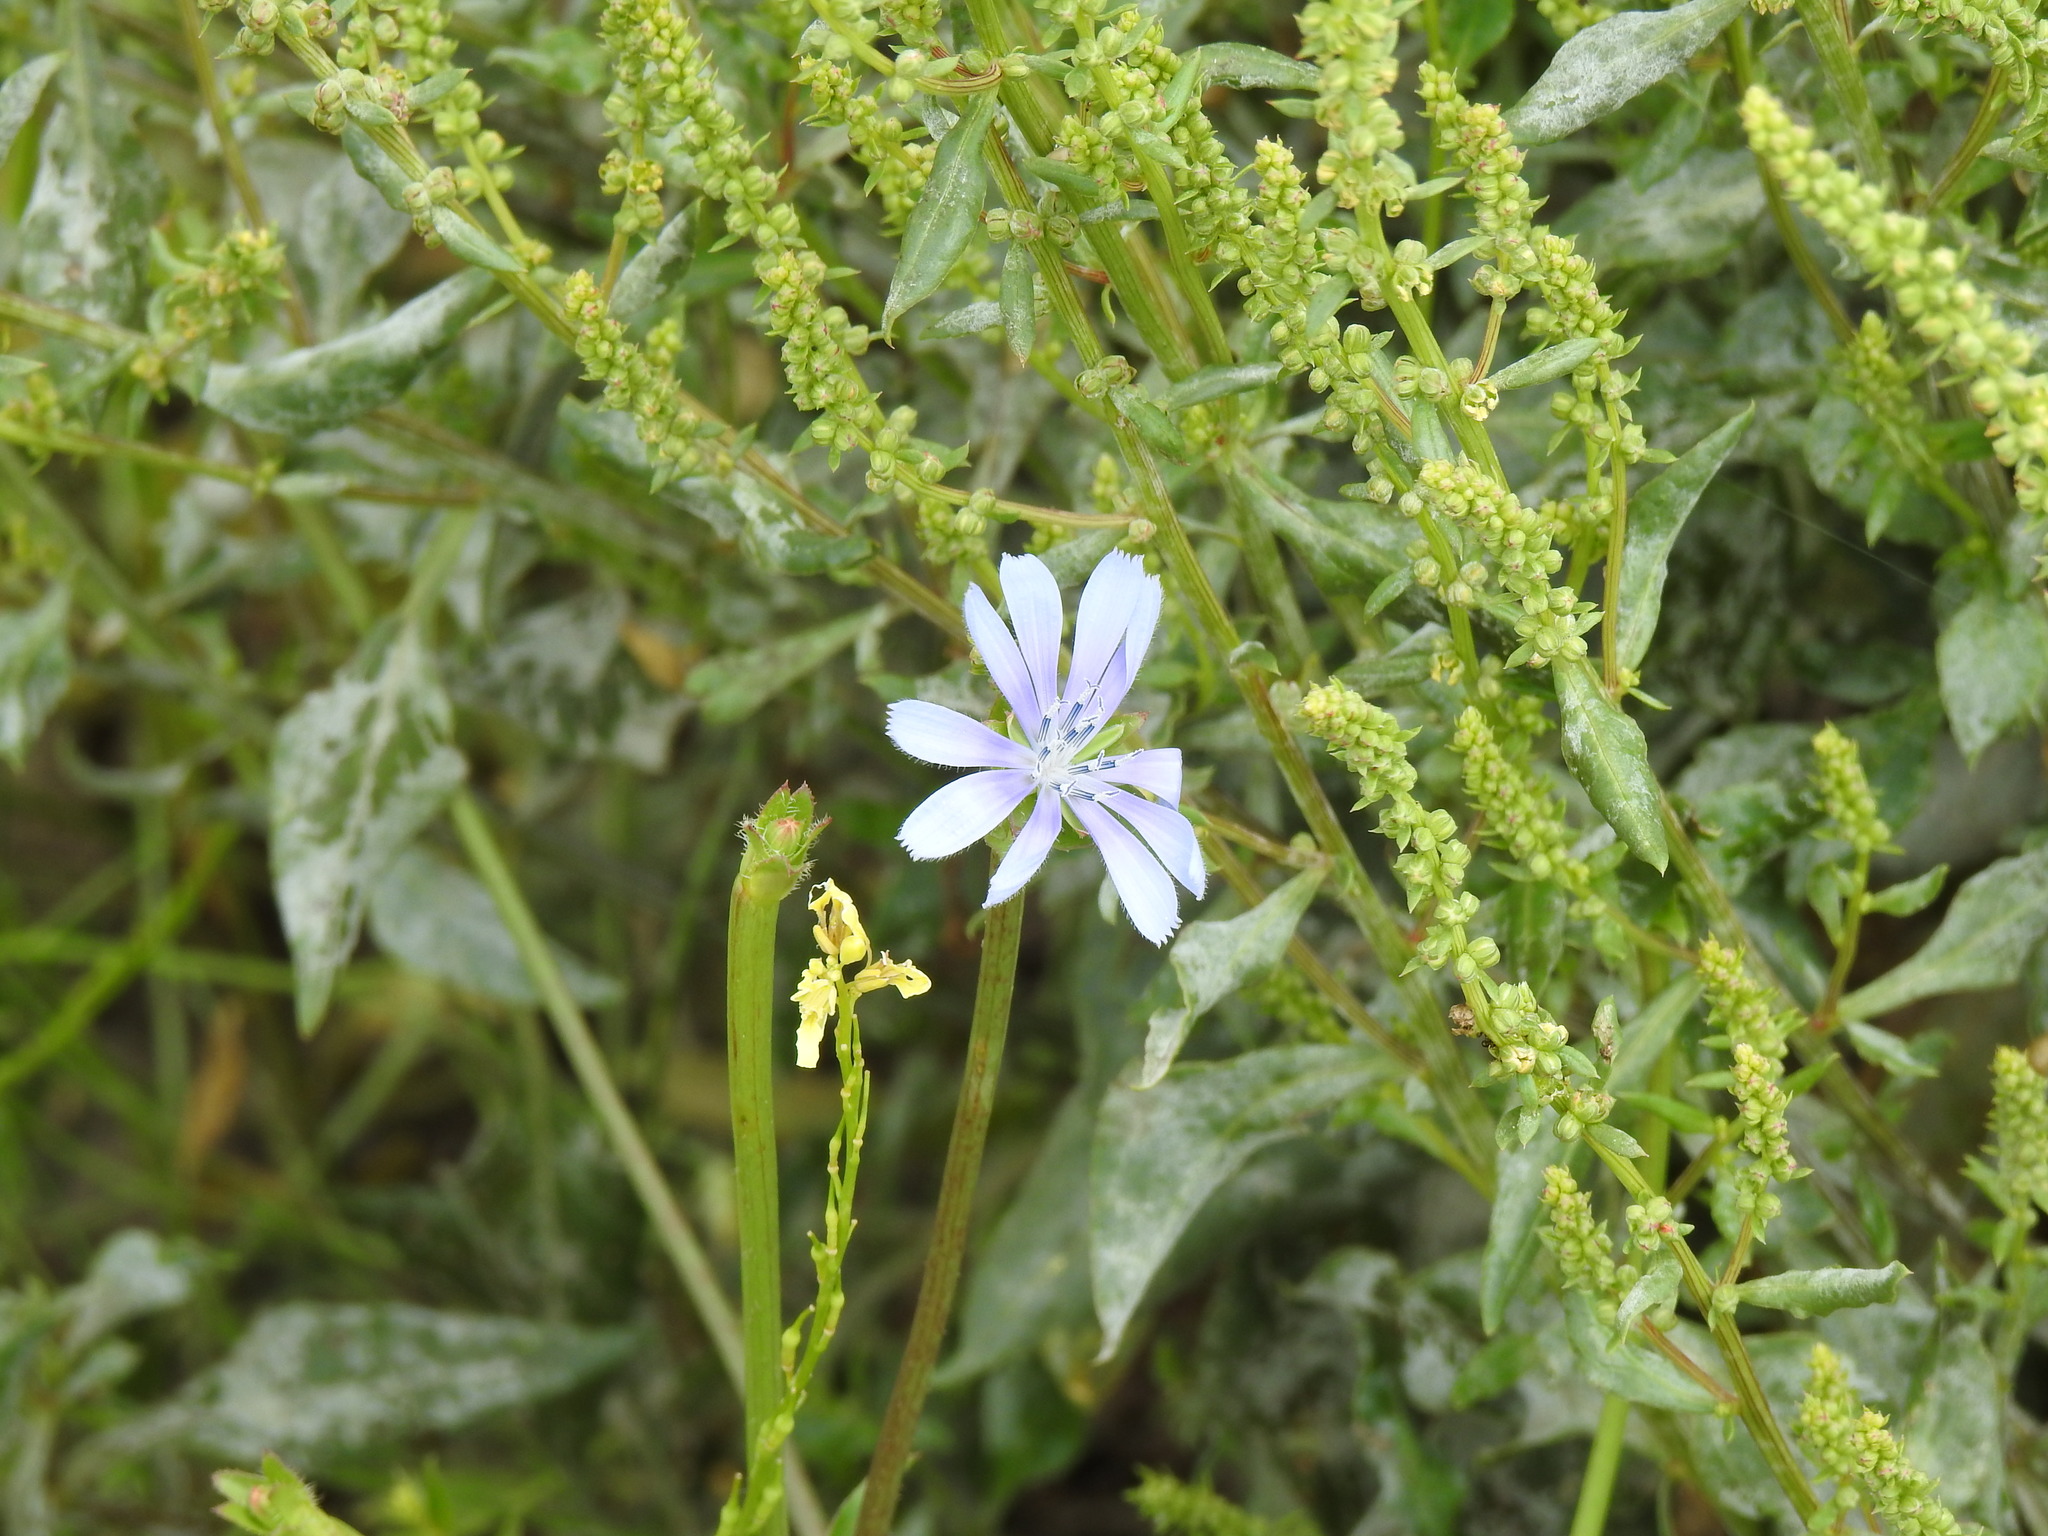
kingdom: Plantae
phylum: Tracheophyta
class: Magnoliopsida
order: Asterales
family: Asteraceae
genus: Cichorium
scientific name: Cichorium intybus
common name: Chicory
